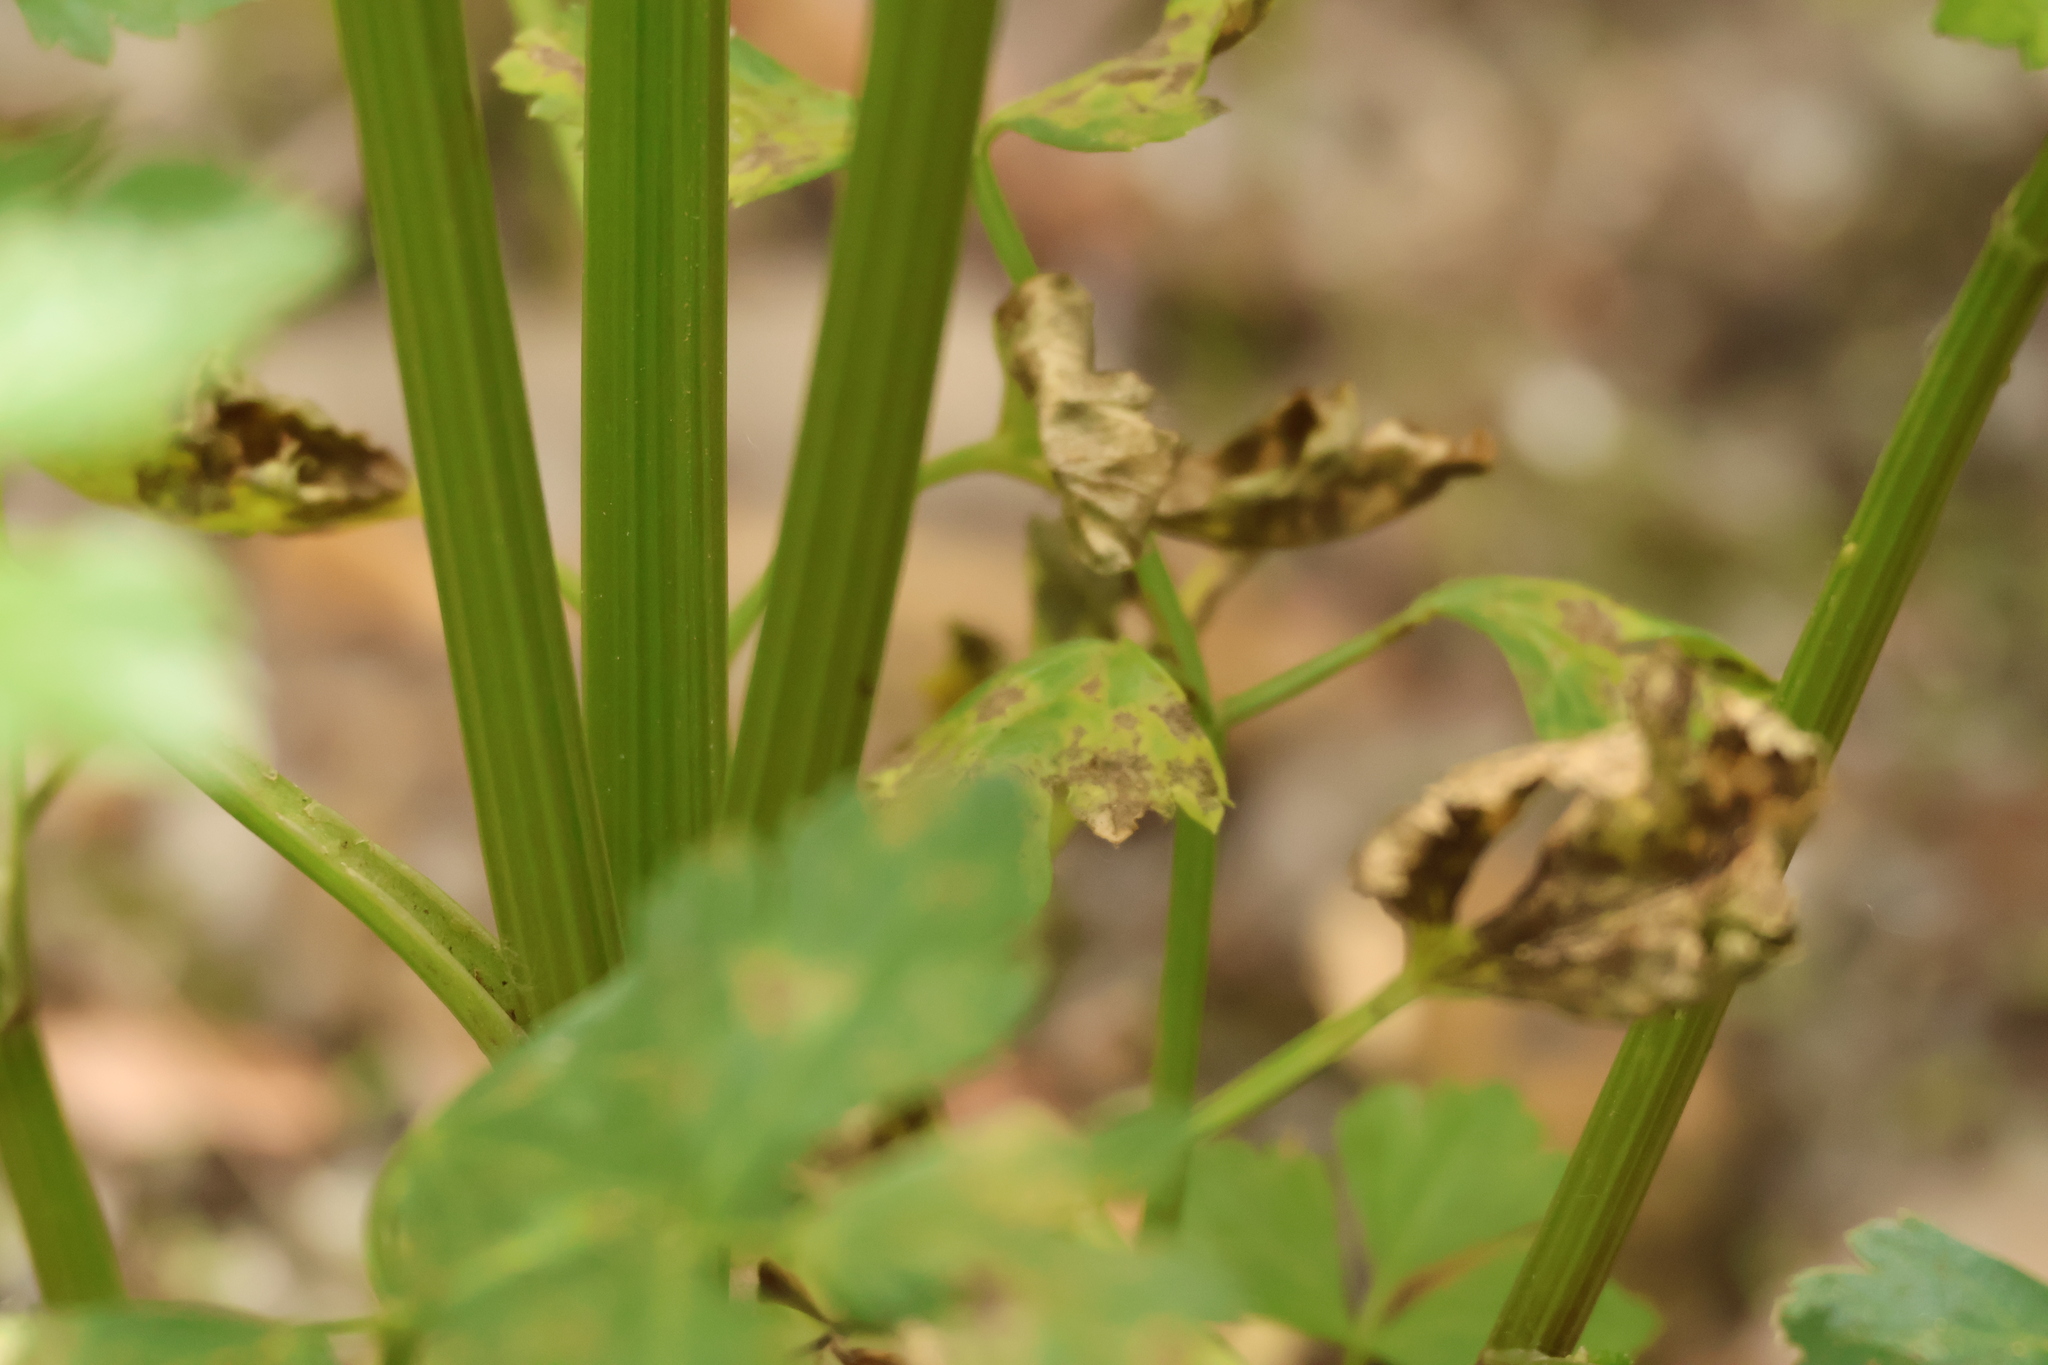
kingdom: Plantae
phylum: Tracheophyta
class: Magnoliopsida
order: Apiales
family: Apiaceae
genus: Apium
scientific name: Apium graveolens
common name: Wild celery
